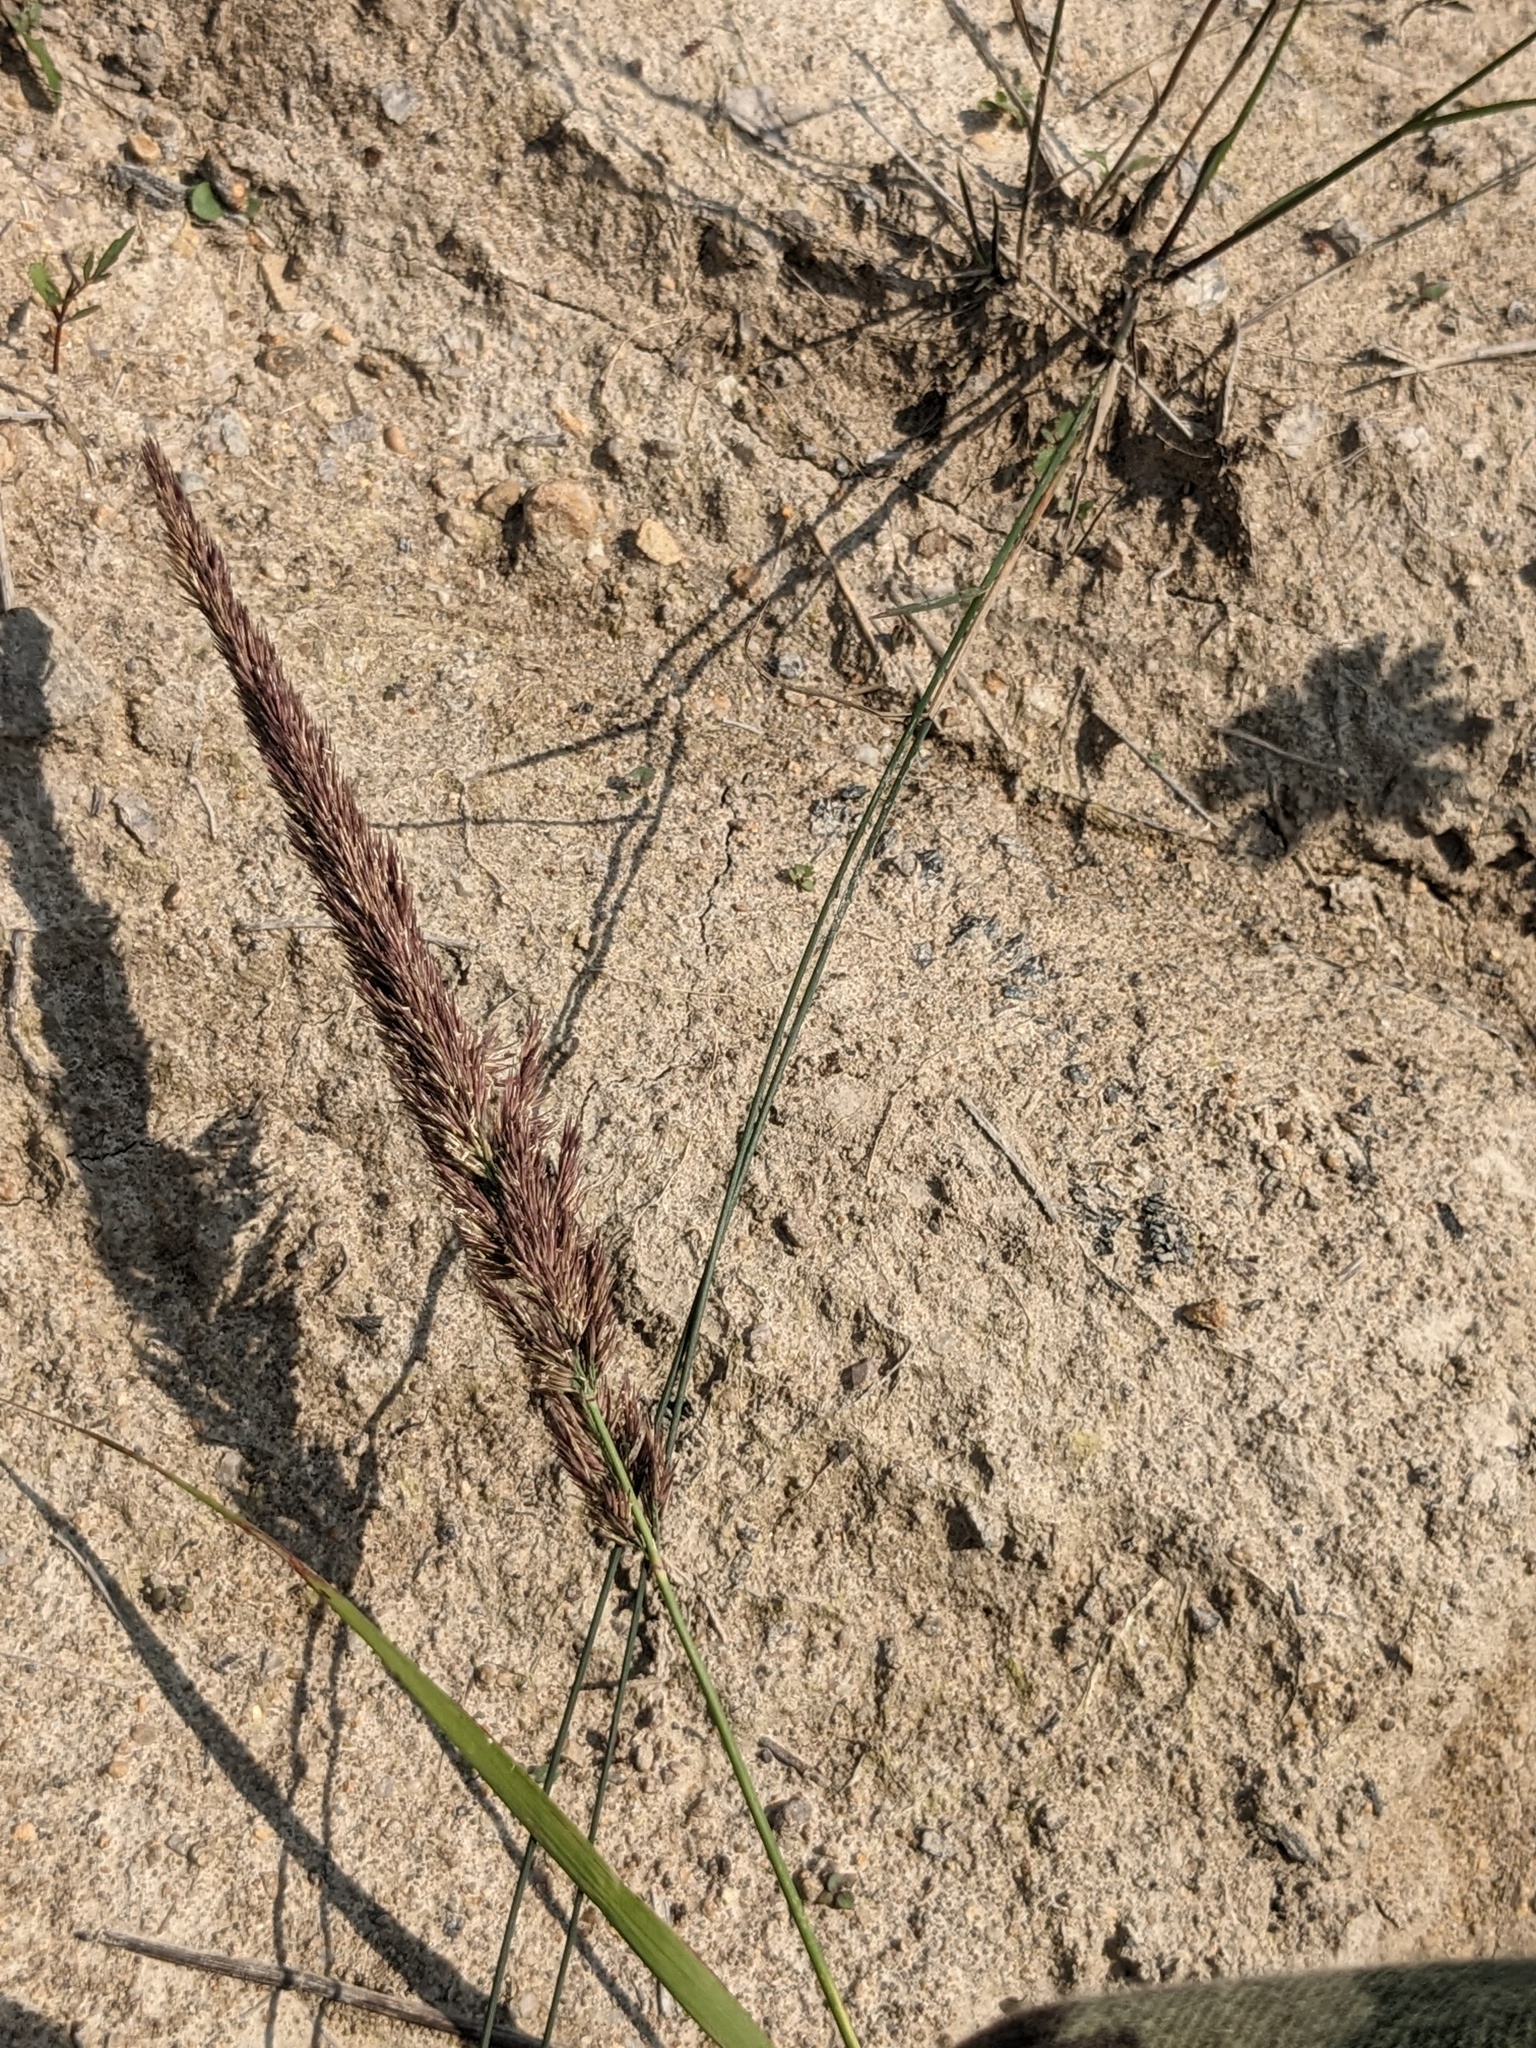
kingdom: Plantae
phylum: Tracheophyta
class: Liliopsida
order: Poales
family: Poaceae
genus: Calamagrostis
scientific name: Calamagrostis extremiorientalis
